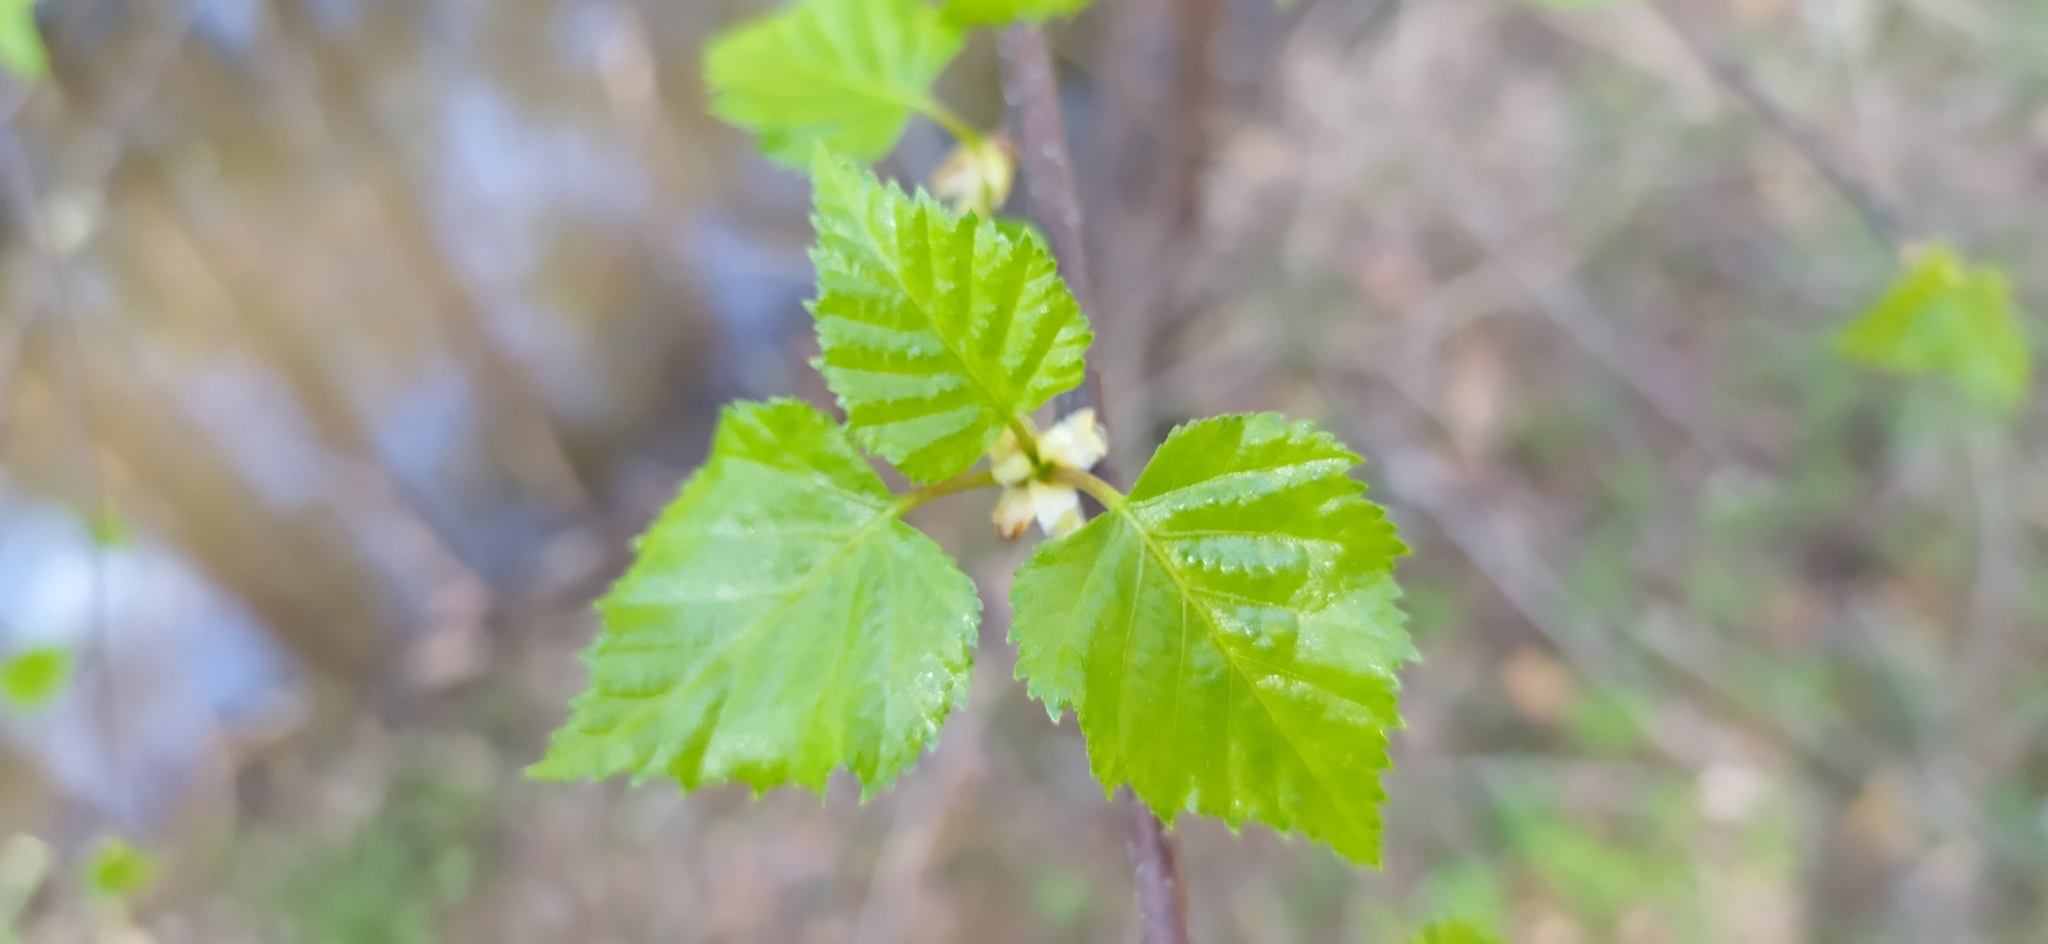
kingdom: Plantae
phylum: Tracheophyta
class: Magnoliopsida
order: Fagales
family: Betulaceae
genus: Betula
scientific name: Betula pendula
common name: Silver birch
